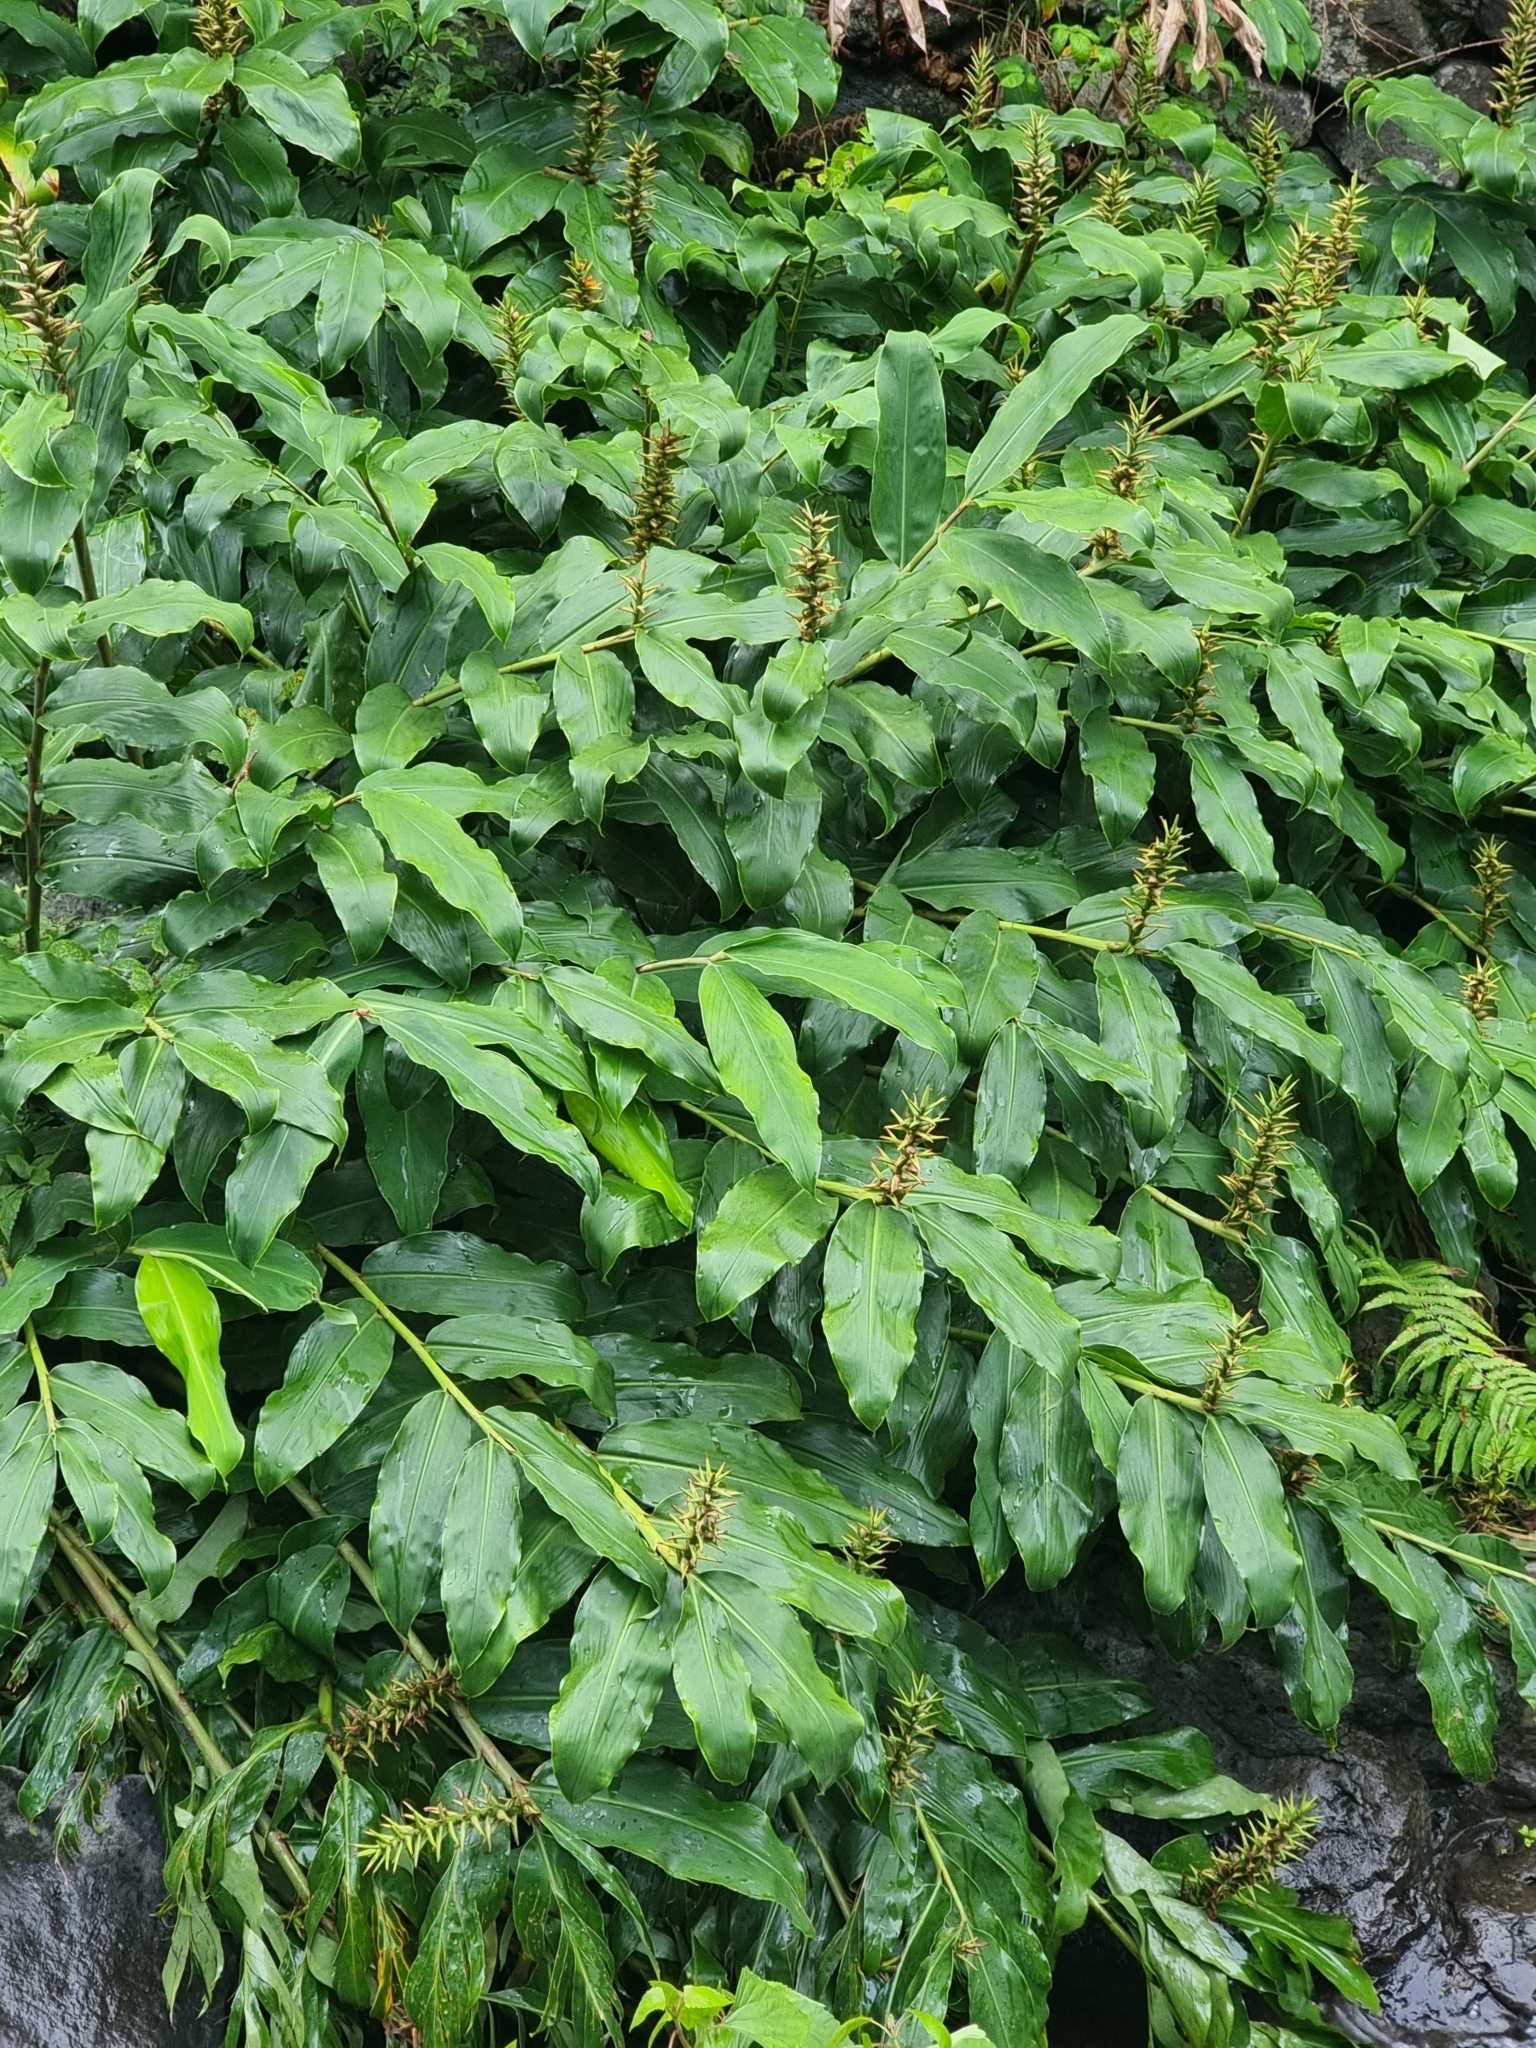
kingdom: Plantae
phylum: Tracheophyta
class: Liliopsida
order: Zingiberales
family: Zingiberaceae
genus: Hedychium
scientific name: Hedychium gardnerianum
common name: Himalayan ginger
